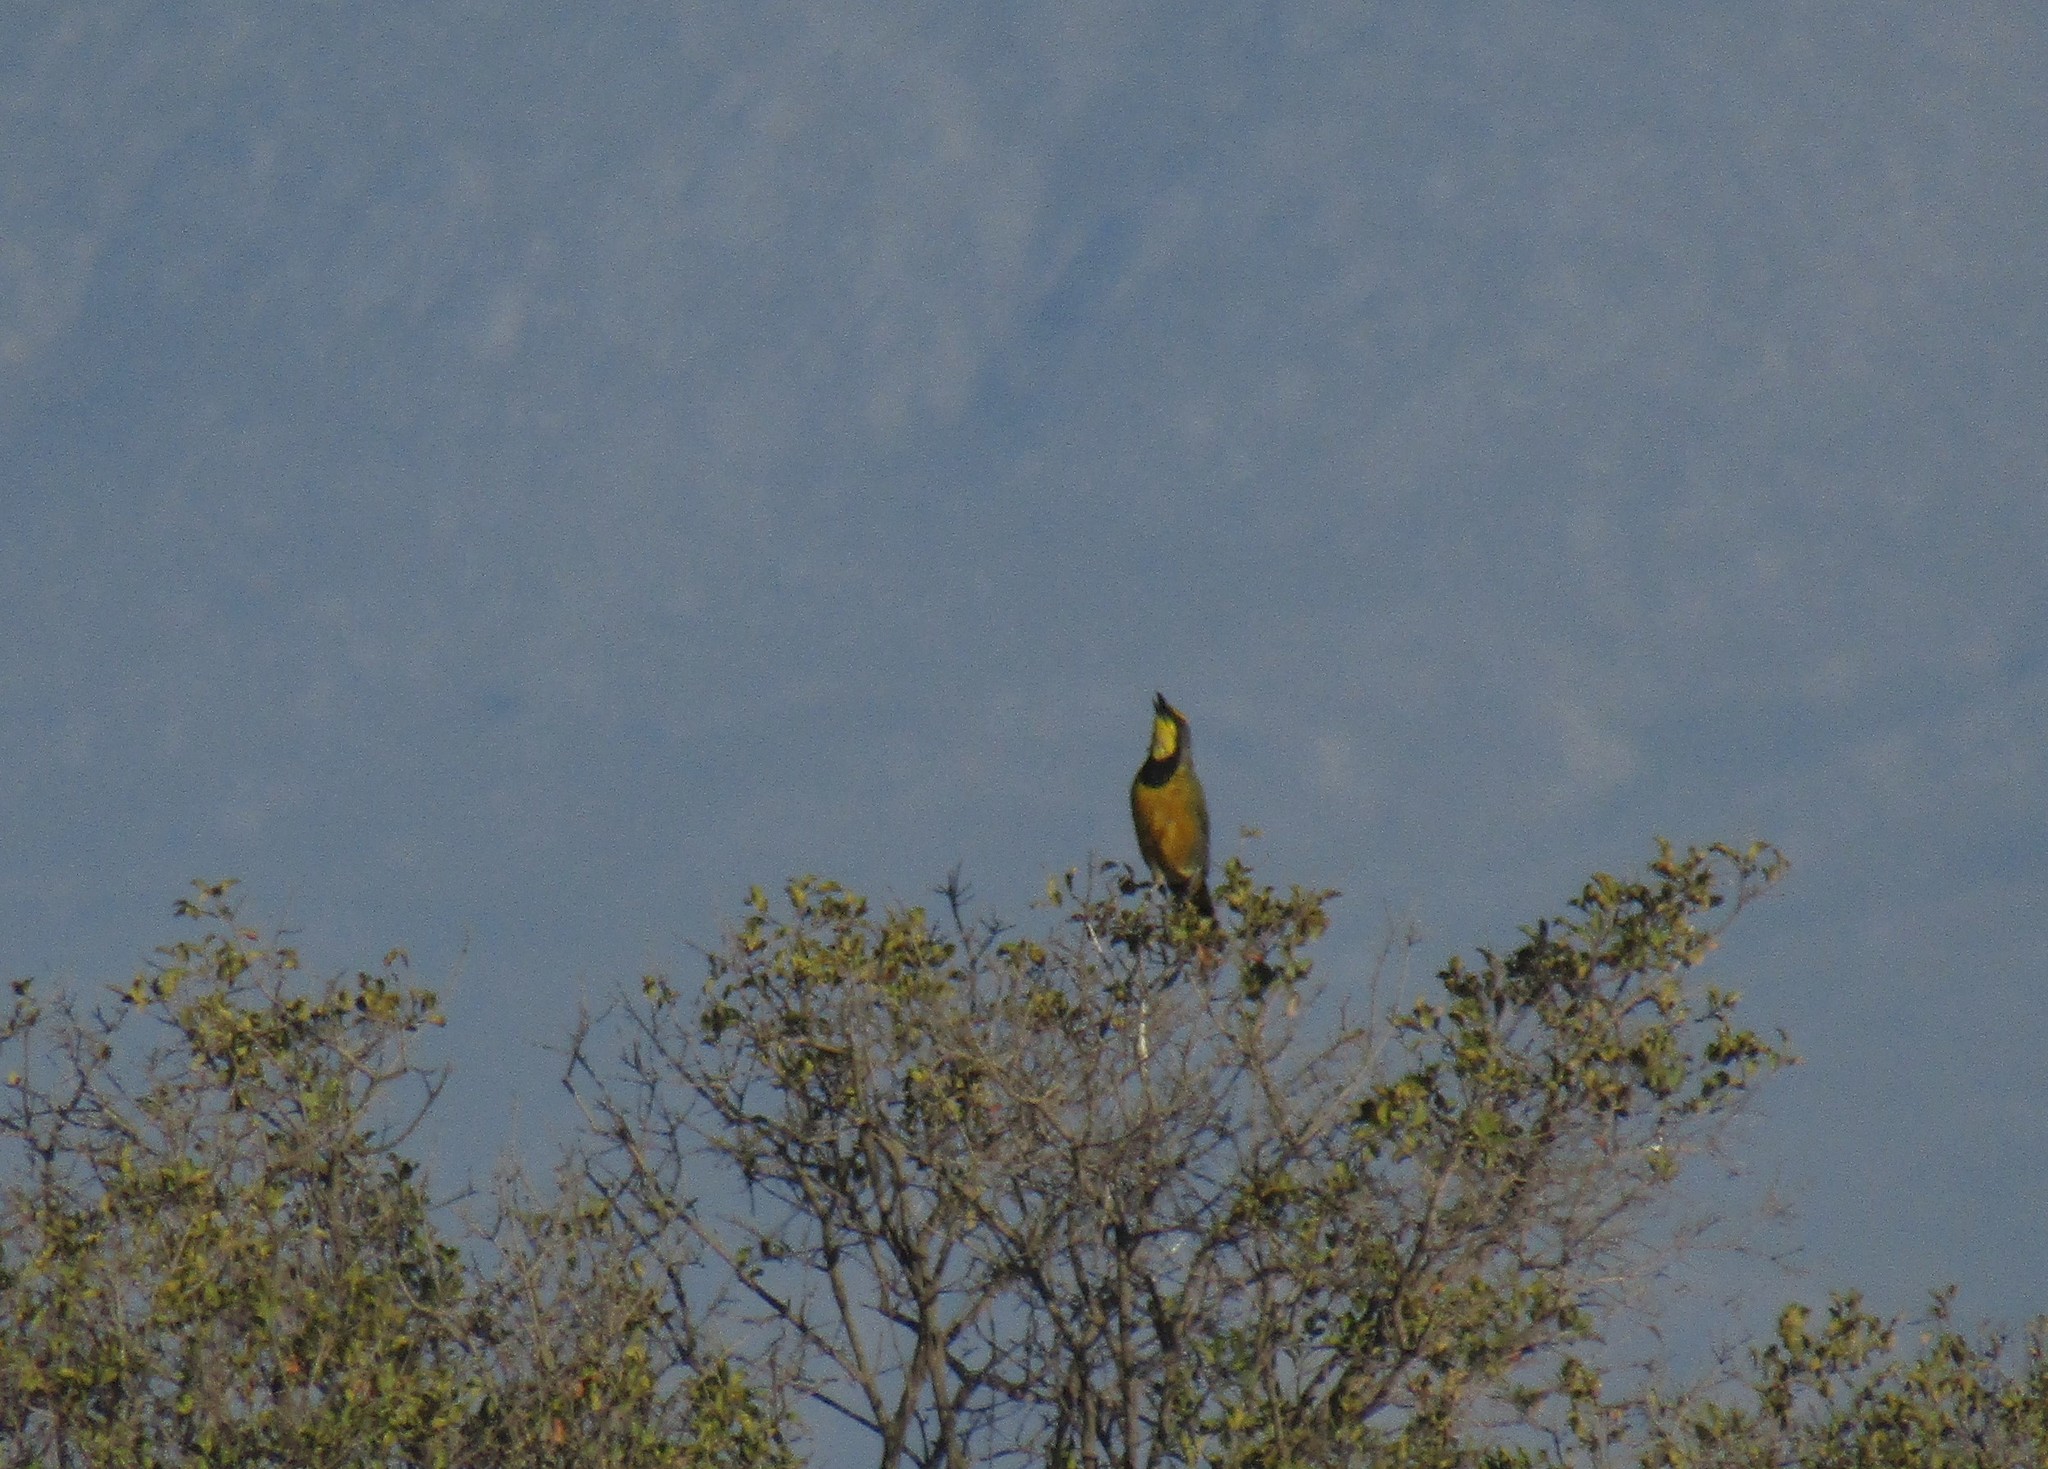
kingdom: Animalia
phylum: Chordata
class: Aves
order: Passeriformes
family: Malaconotidae
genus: Telophorus
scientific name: Telophorus zeylonus
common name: Bokmakierie
